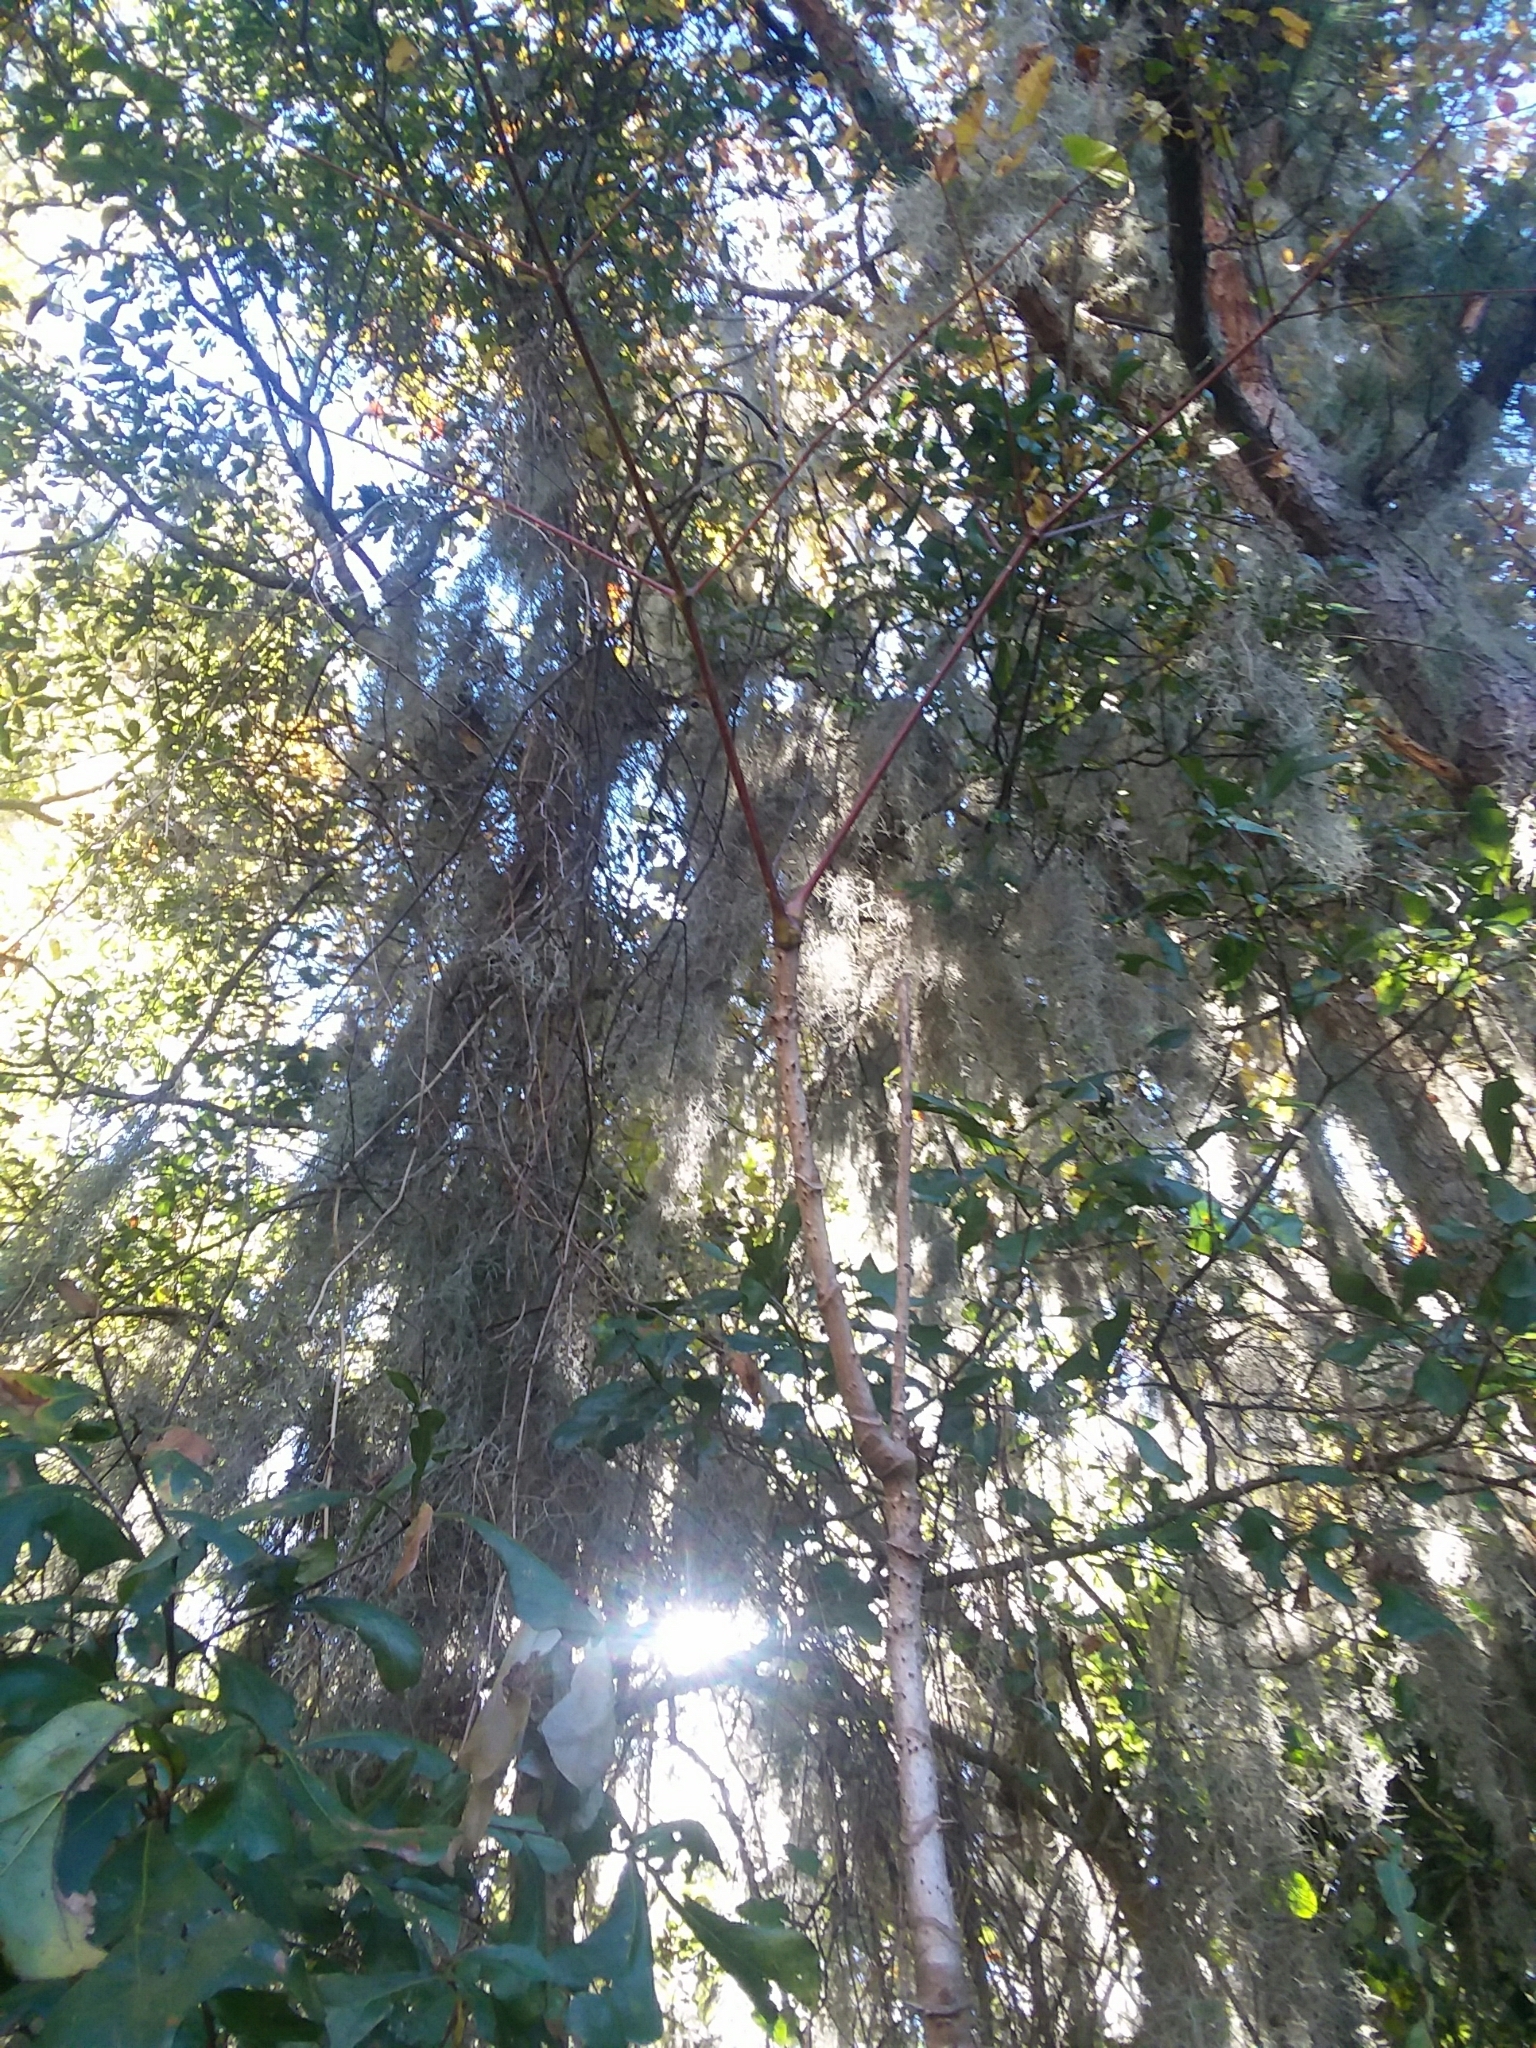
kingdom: Plantae
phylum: Tracheophyta
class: Magnoliopsida
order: Apiales
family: Araliaceae
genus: Aralia
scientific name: Aralia spinosa
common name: Hercules'-club
